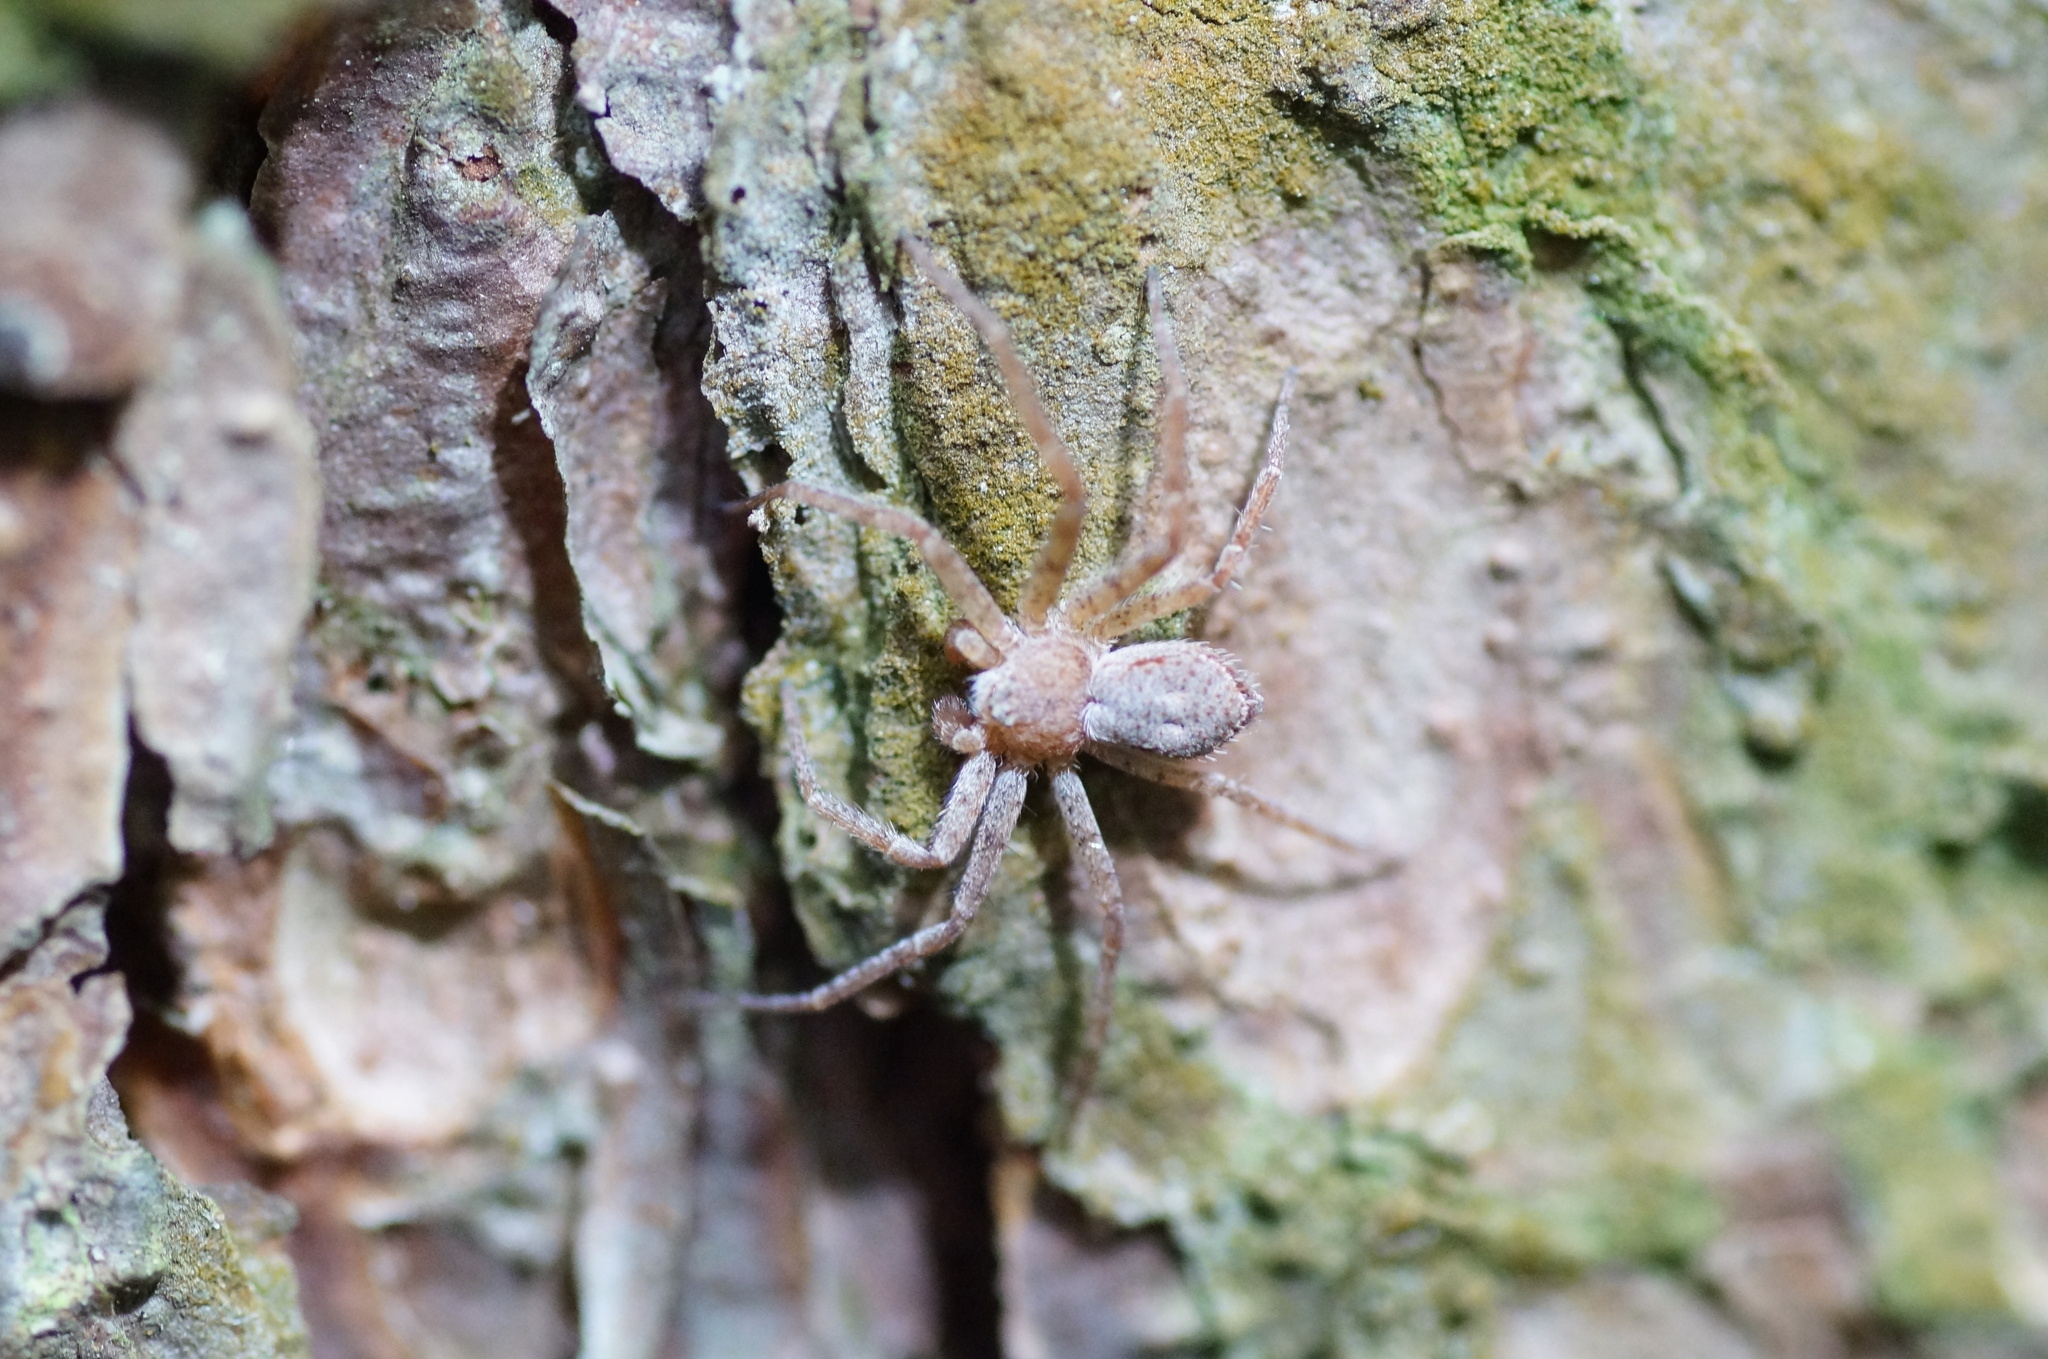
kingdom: Animalia
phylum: Arthropoda
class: Arachnida
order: Araneae
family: Philodromidae
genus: Philodromus
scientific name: Philodromus fuscomarginatus
